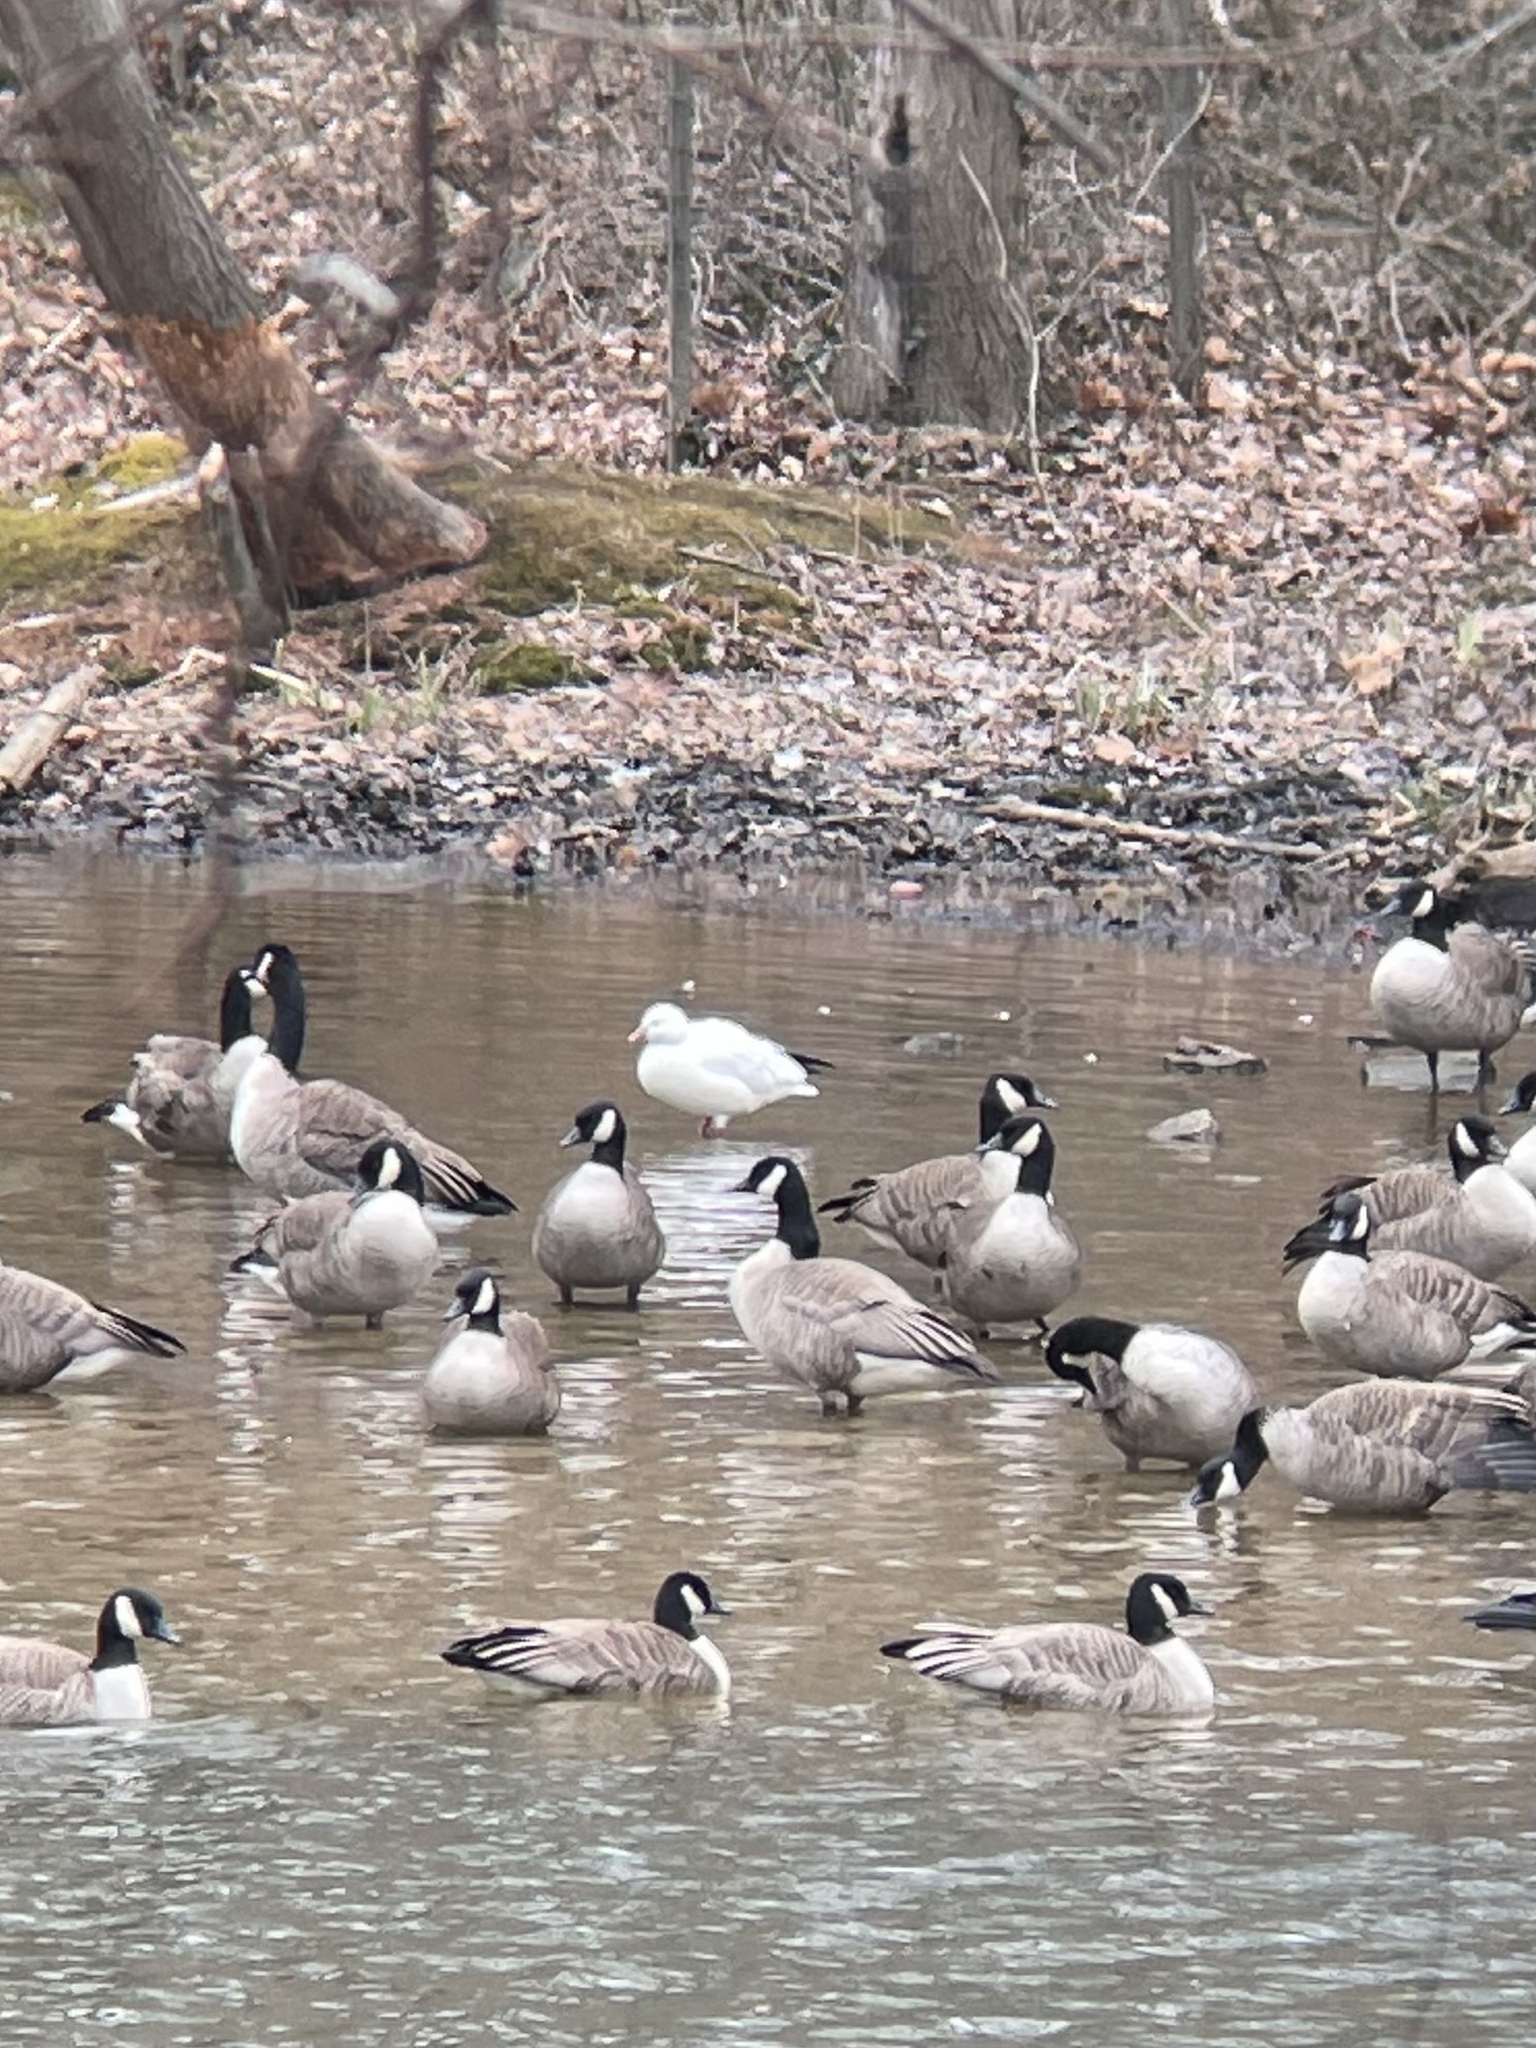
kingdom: Animalia
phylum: Chordata
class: Aves
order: Anseriformes
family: Anatidae
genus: Anser
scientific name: Anser rossii
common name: Ross's goose
